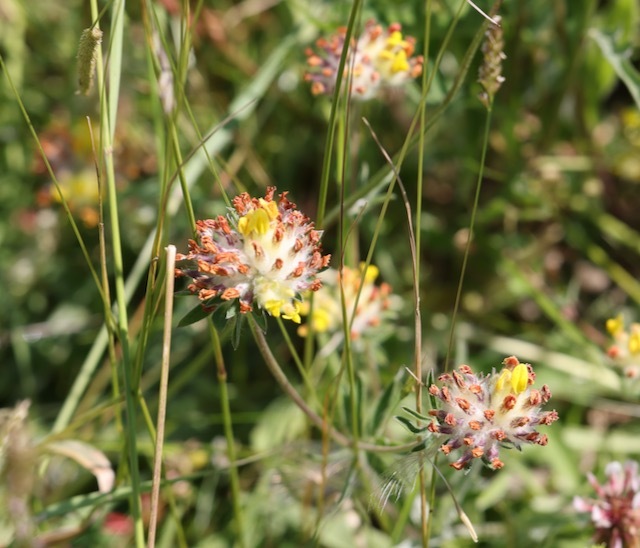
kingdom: Plantae
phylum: Tracheophyta
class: Magnoliopsida
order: Fabales
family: Fabaceae
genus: Anthyllis
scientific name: Anthyllis vulneraria
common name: Kidney vetch
